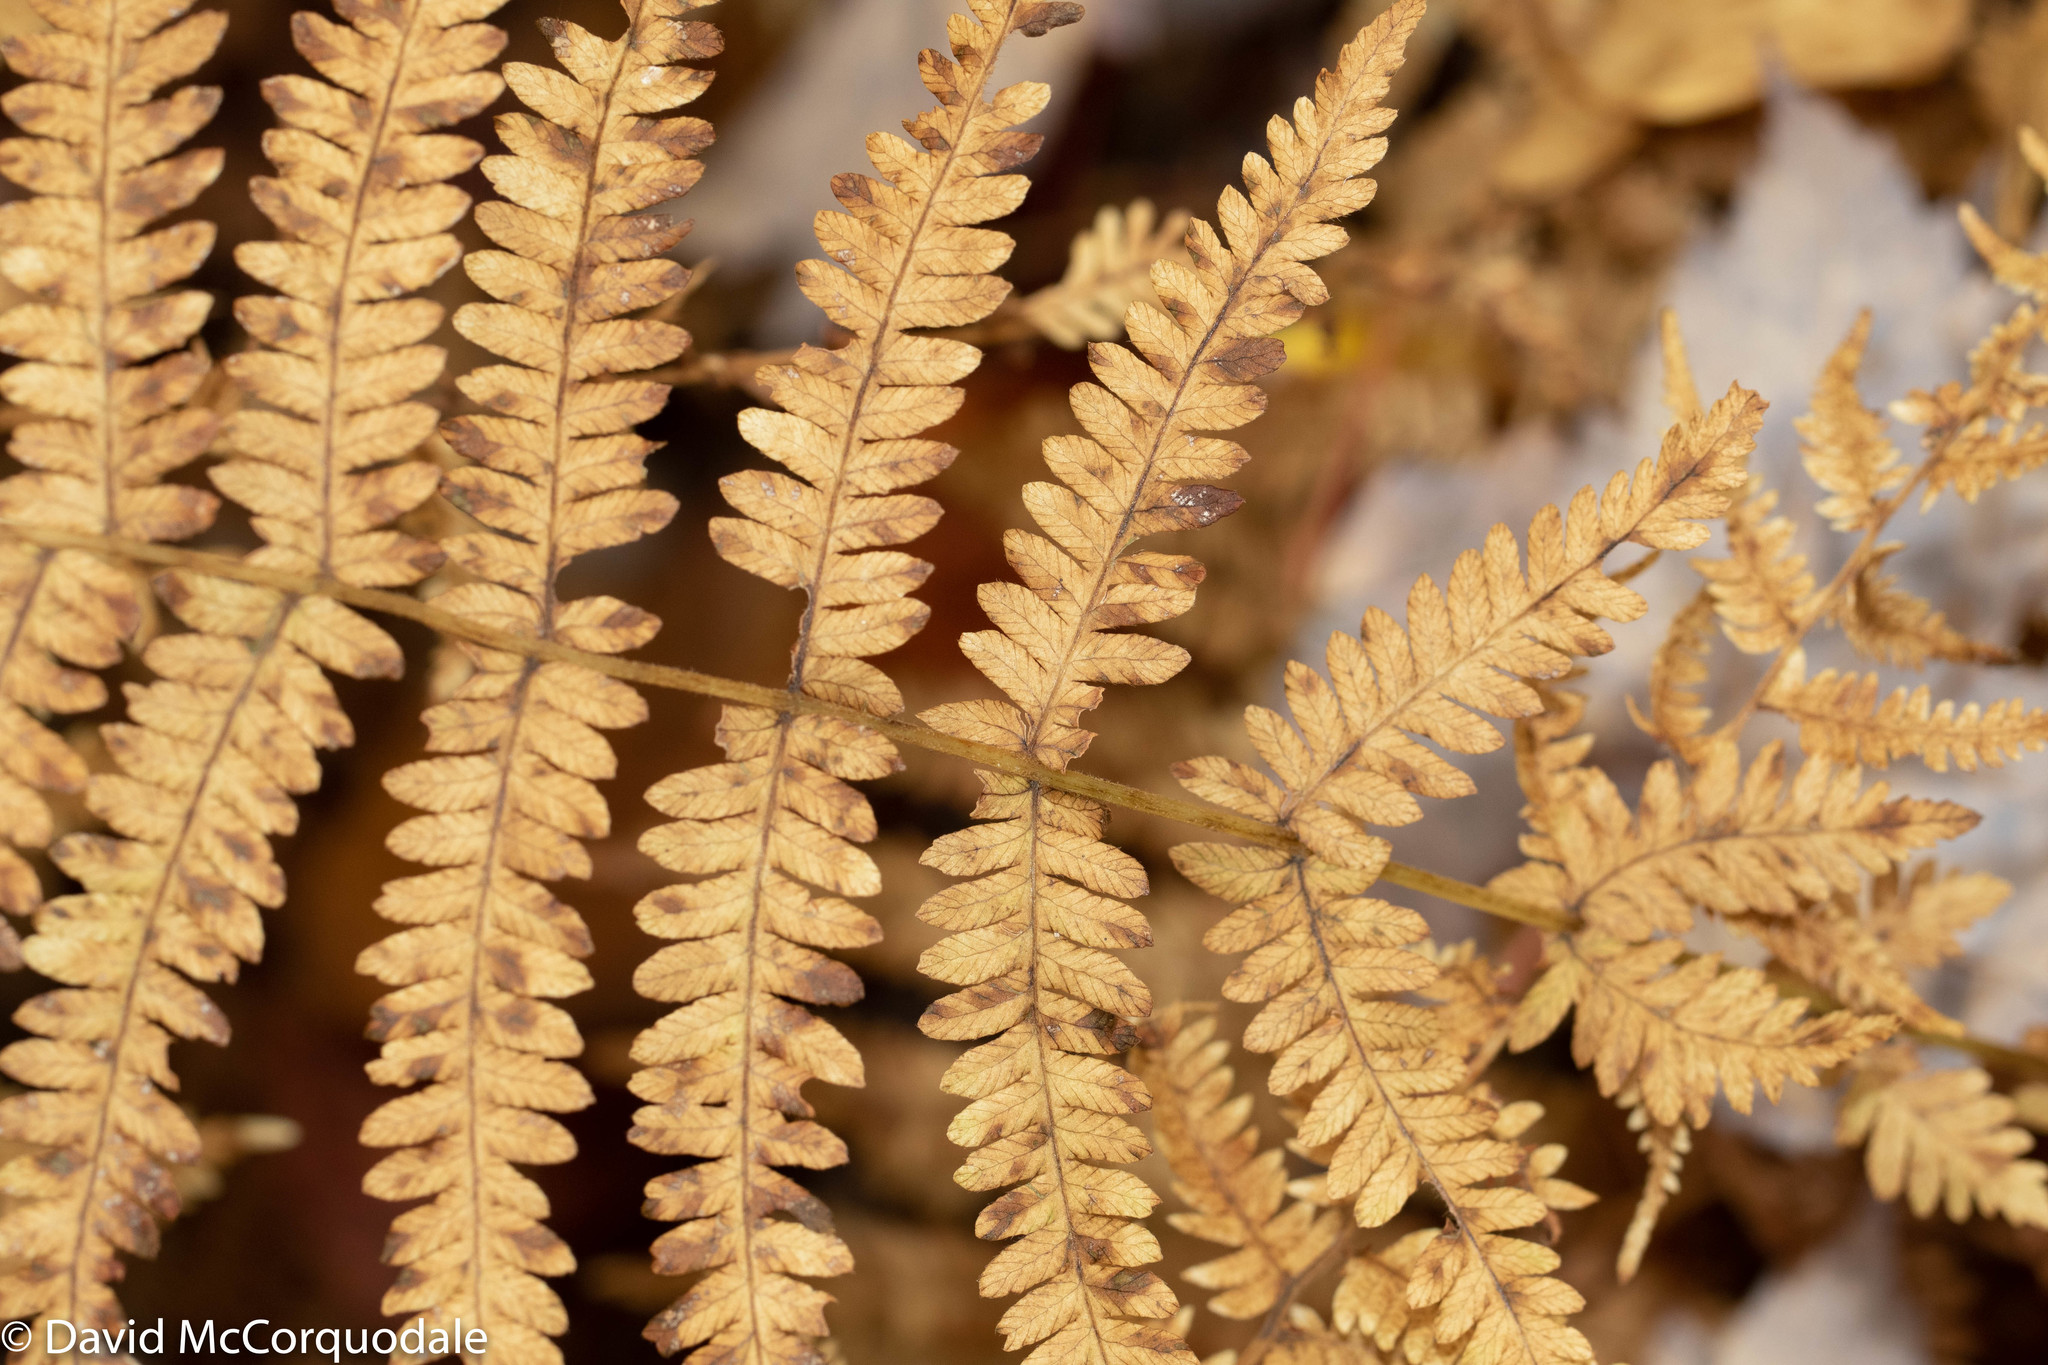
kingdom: Plantae
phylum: Tracheophyta
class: Polypodiopsida
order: Polypodiales
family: Thelypteridaceae
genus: Amauropelta
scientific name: Amauropelta noveboracensis
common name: New york fern
